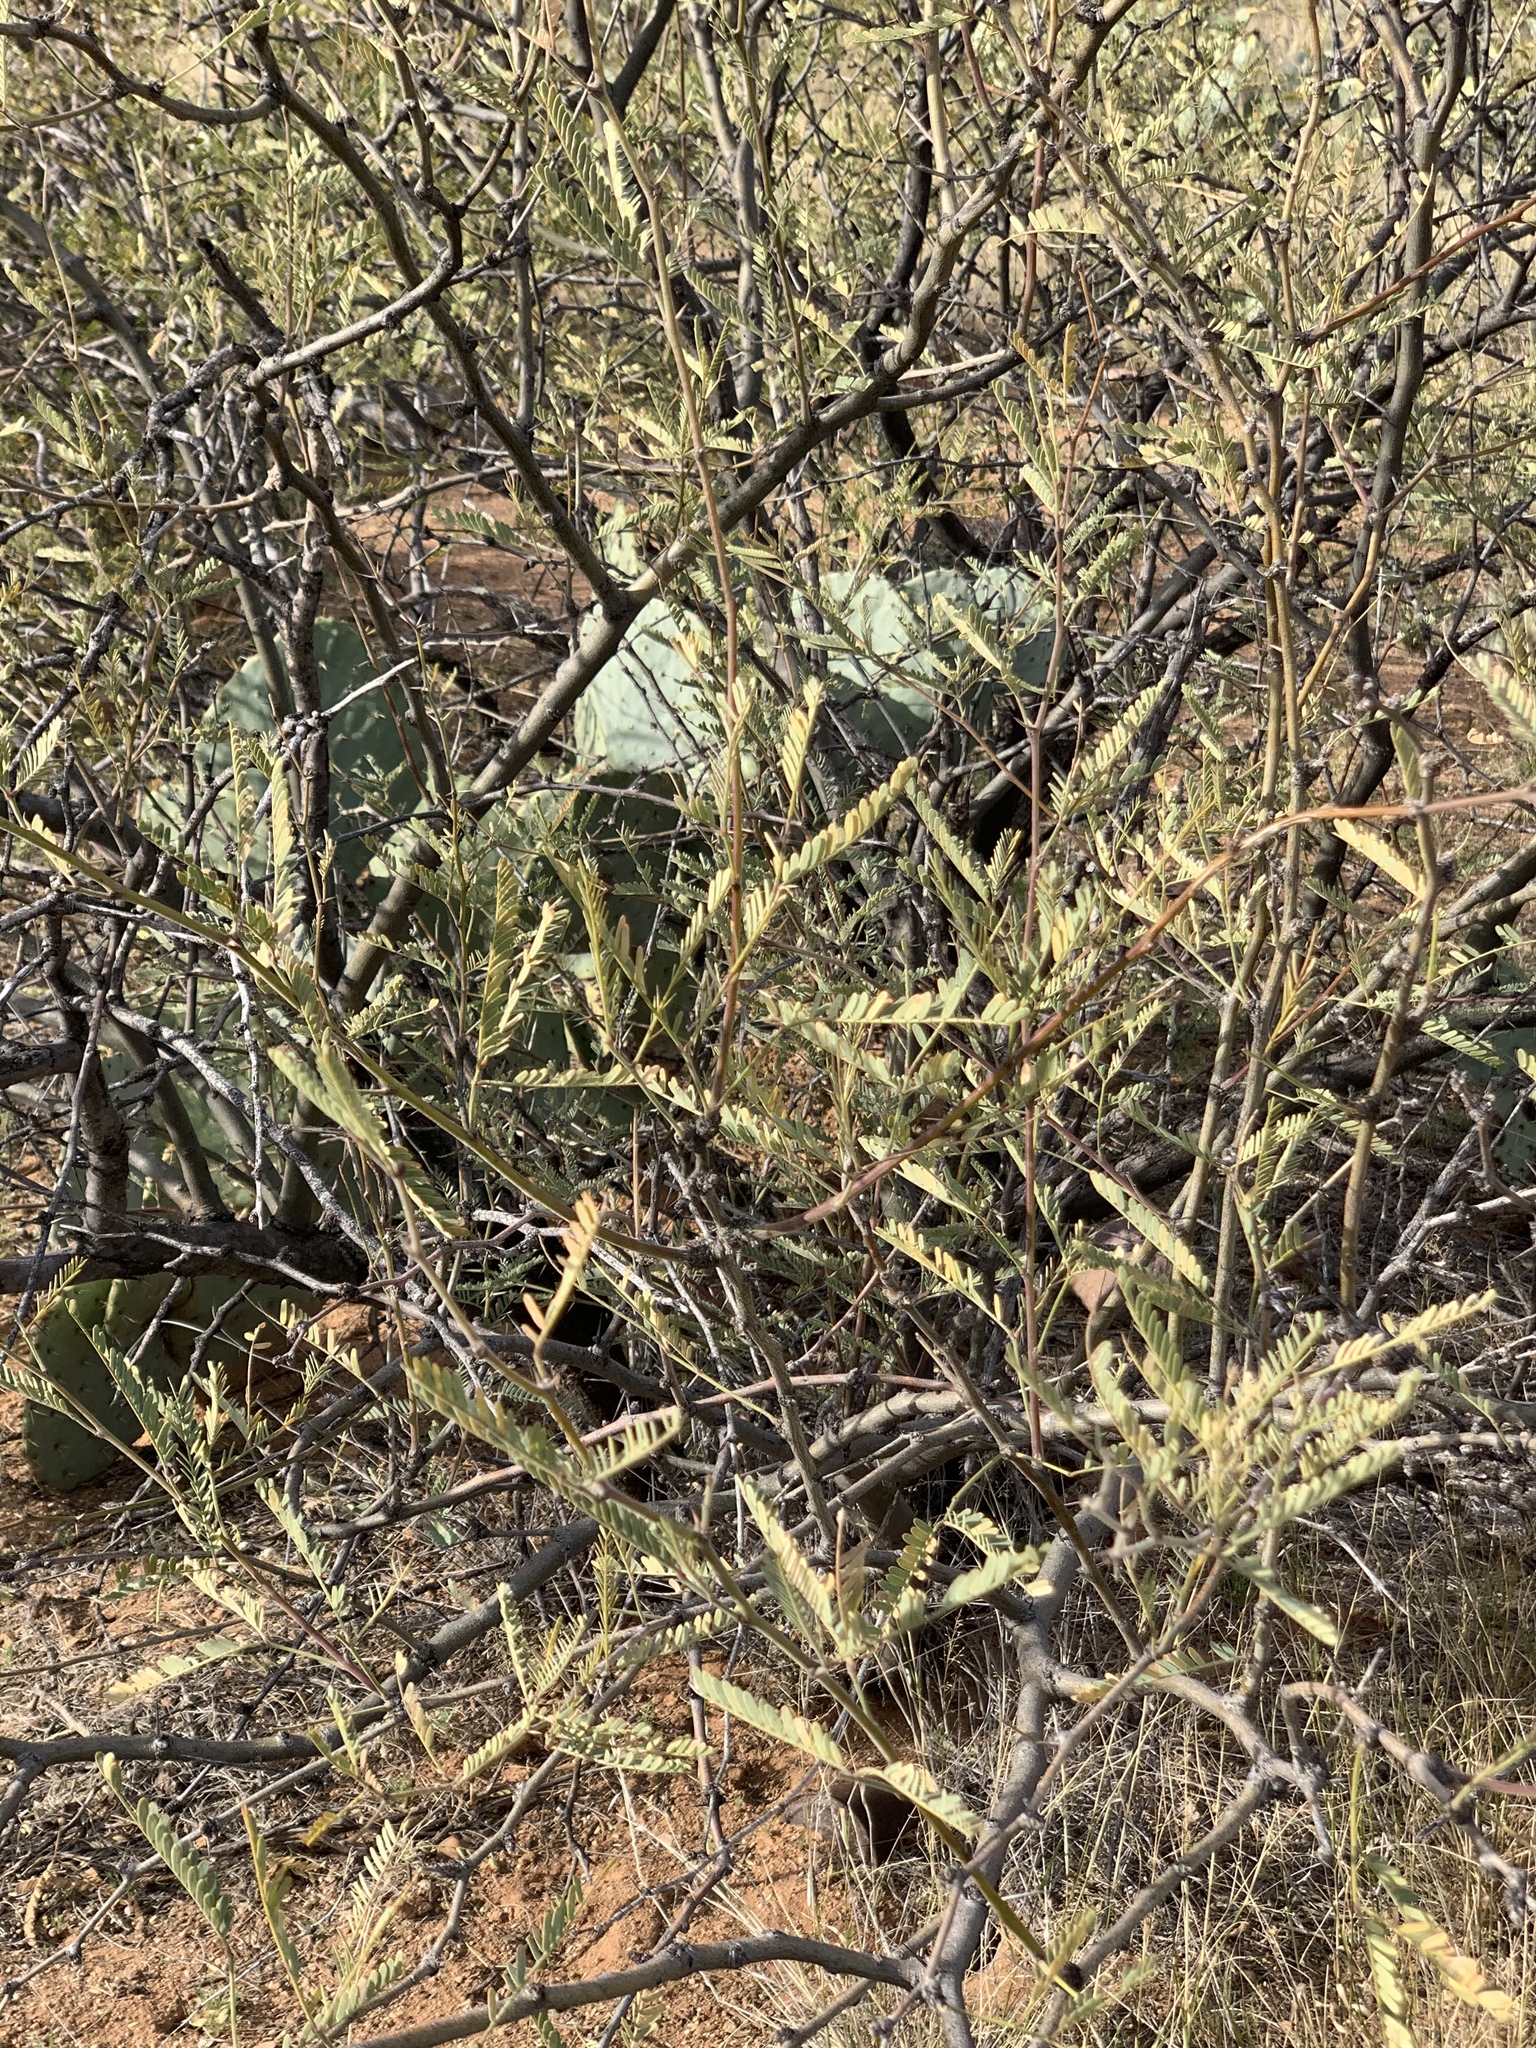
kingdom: Plantae
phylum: Tracheophyta
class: Magnoliopsida
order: Fabales
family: Fabaceae
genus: Prosopis
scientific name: Prosopis velutina
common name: Velvet mesquite
